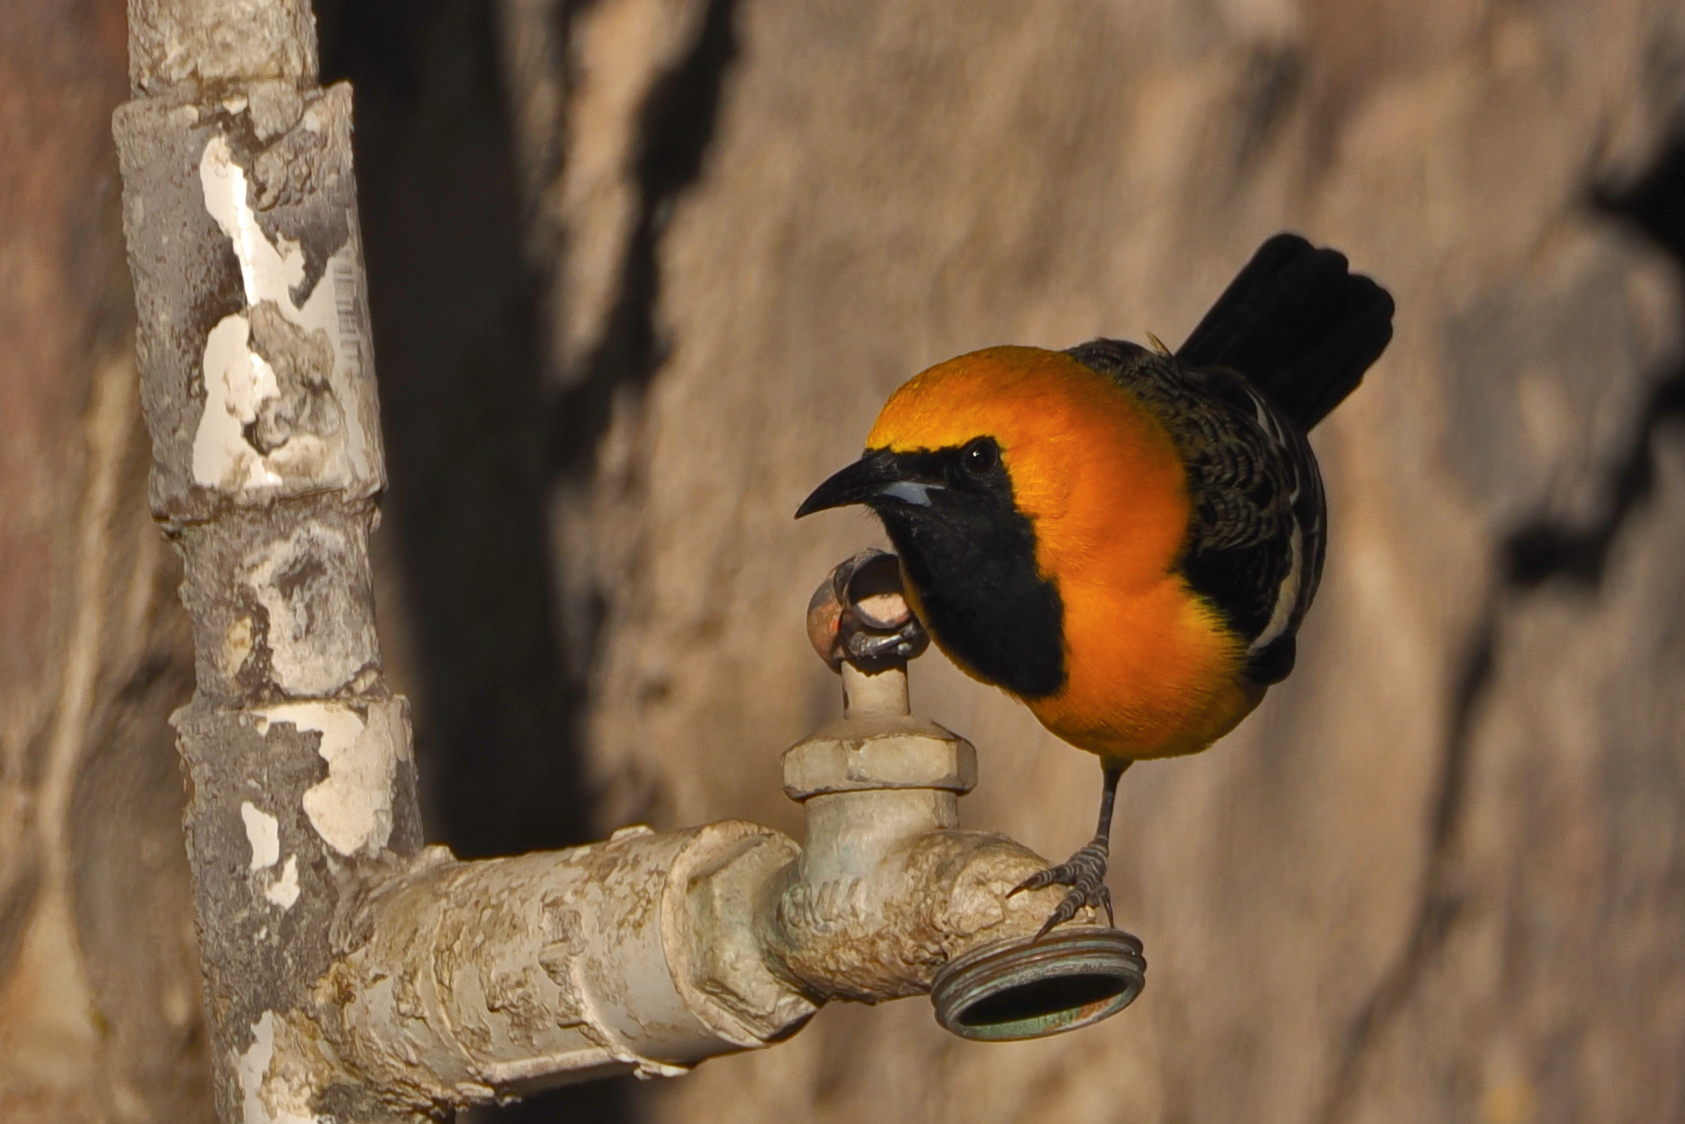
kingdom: Animalia
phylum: Chordata
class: Aves
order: Passeriformes
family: Icteridae
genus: Icterus
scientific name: Icterus cucullatus
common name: Hooded oriole
